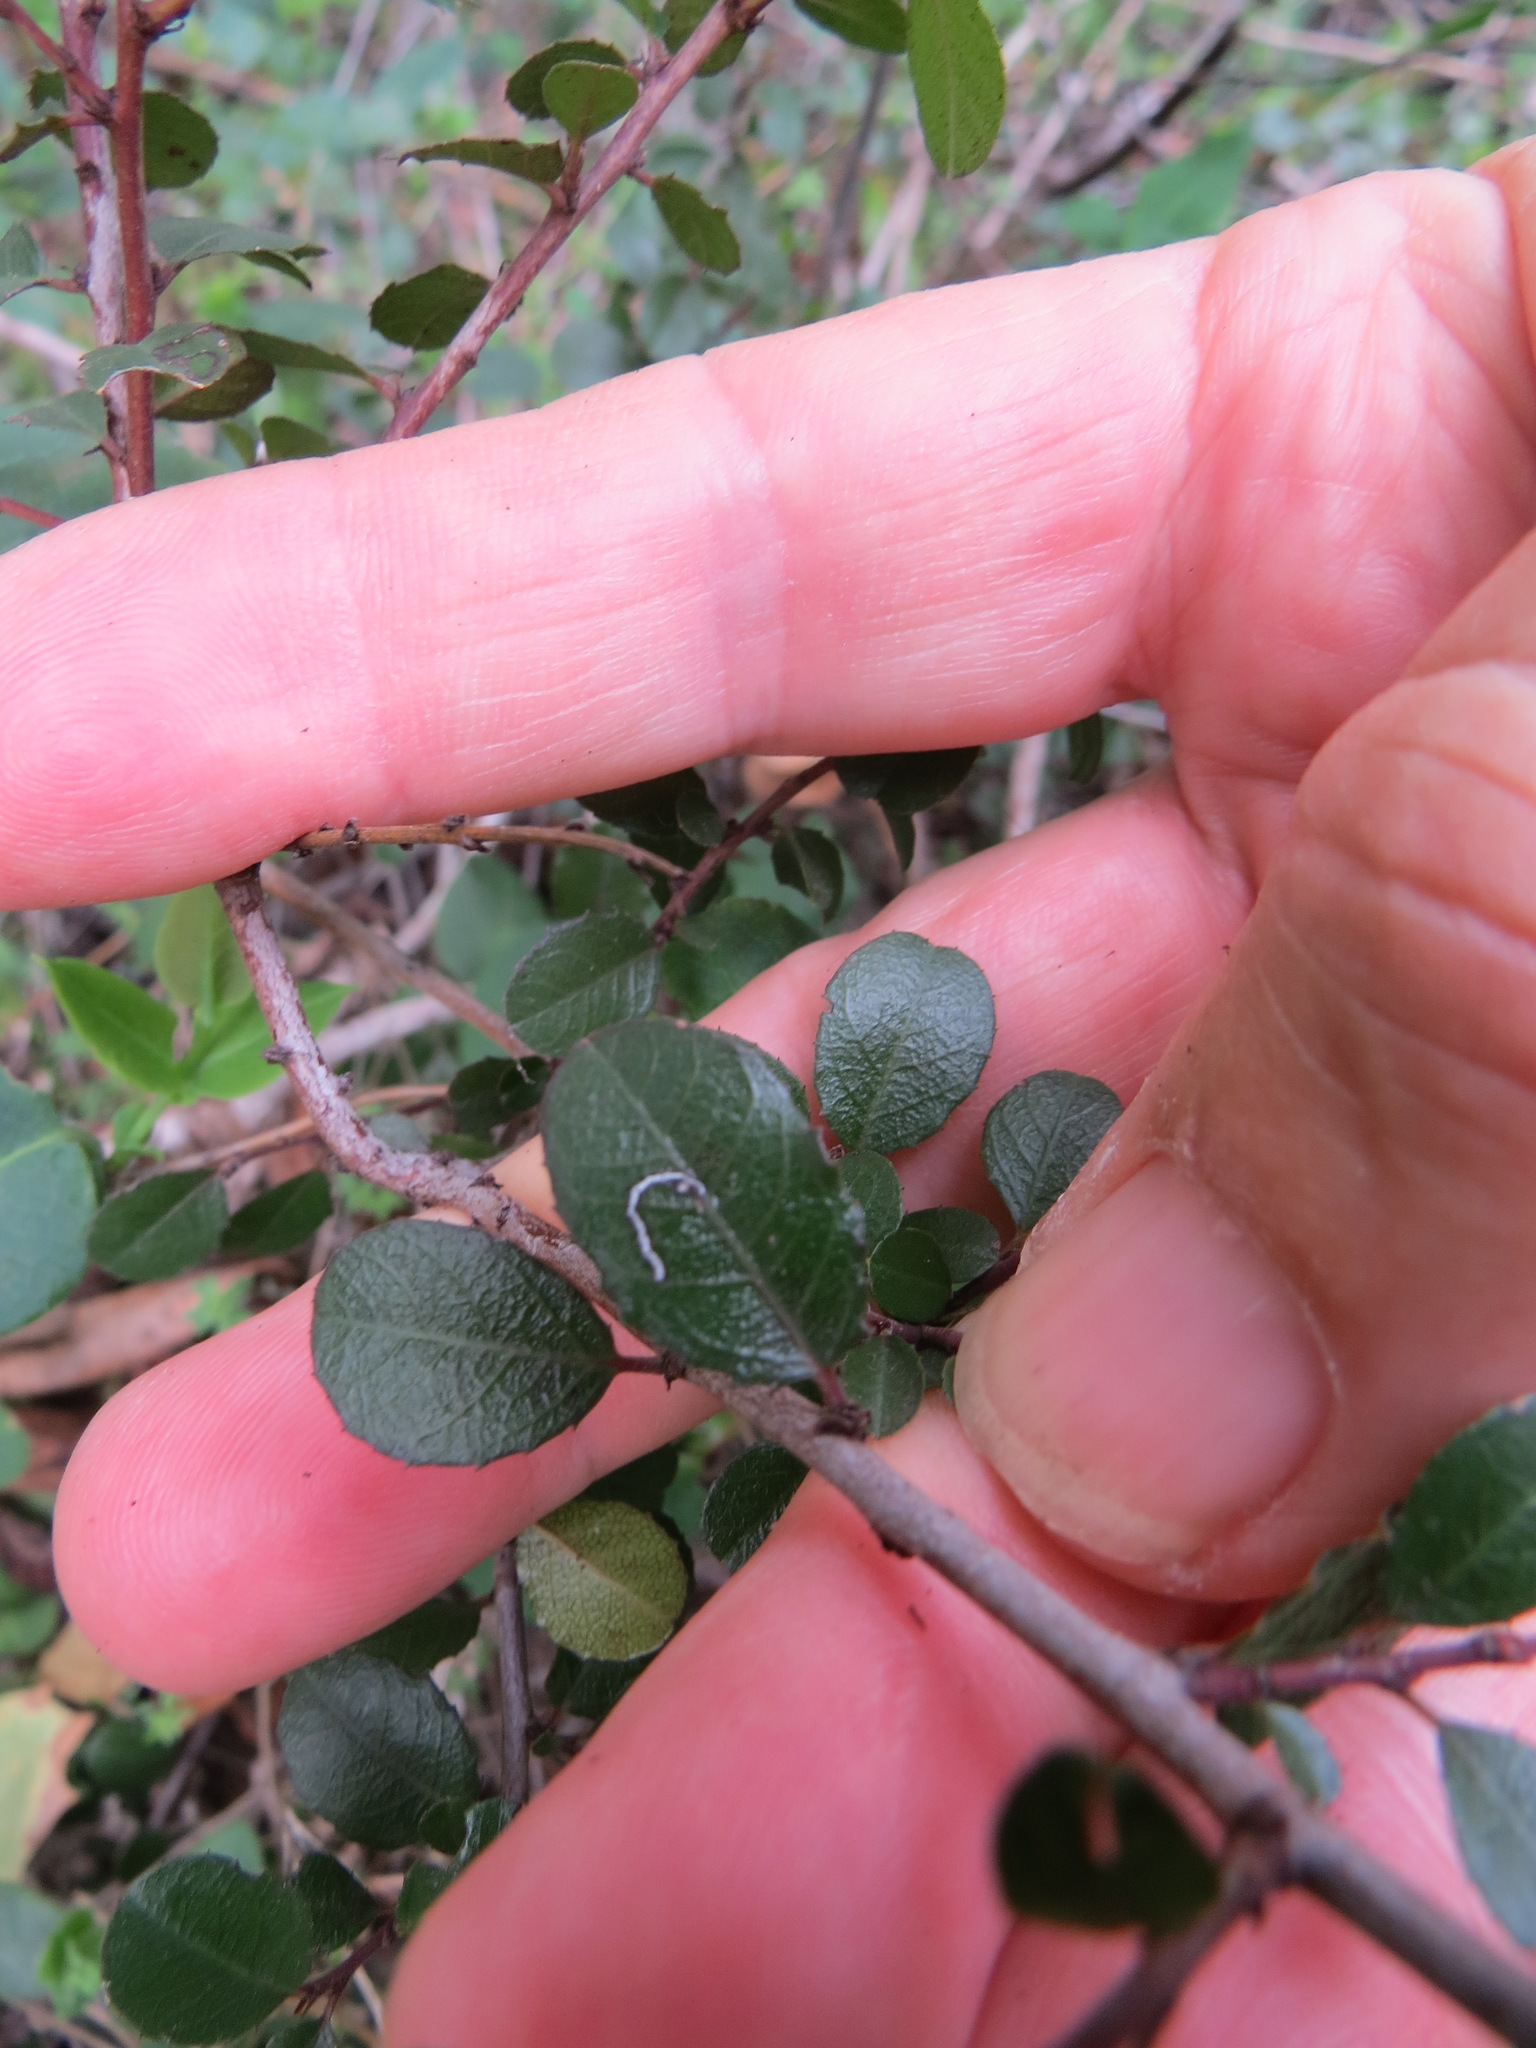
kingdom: Plantae
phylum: Tracheophyta
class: Magnoliopsida
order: Rosales
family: Rhamnaceae
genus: Endotropis
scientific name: Endotropis crocea
